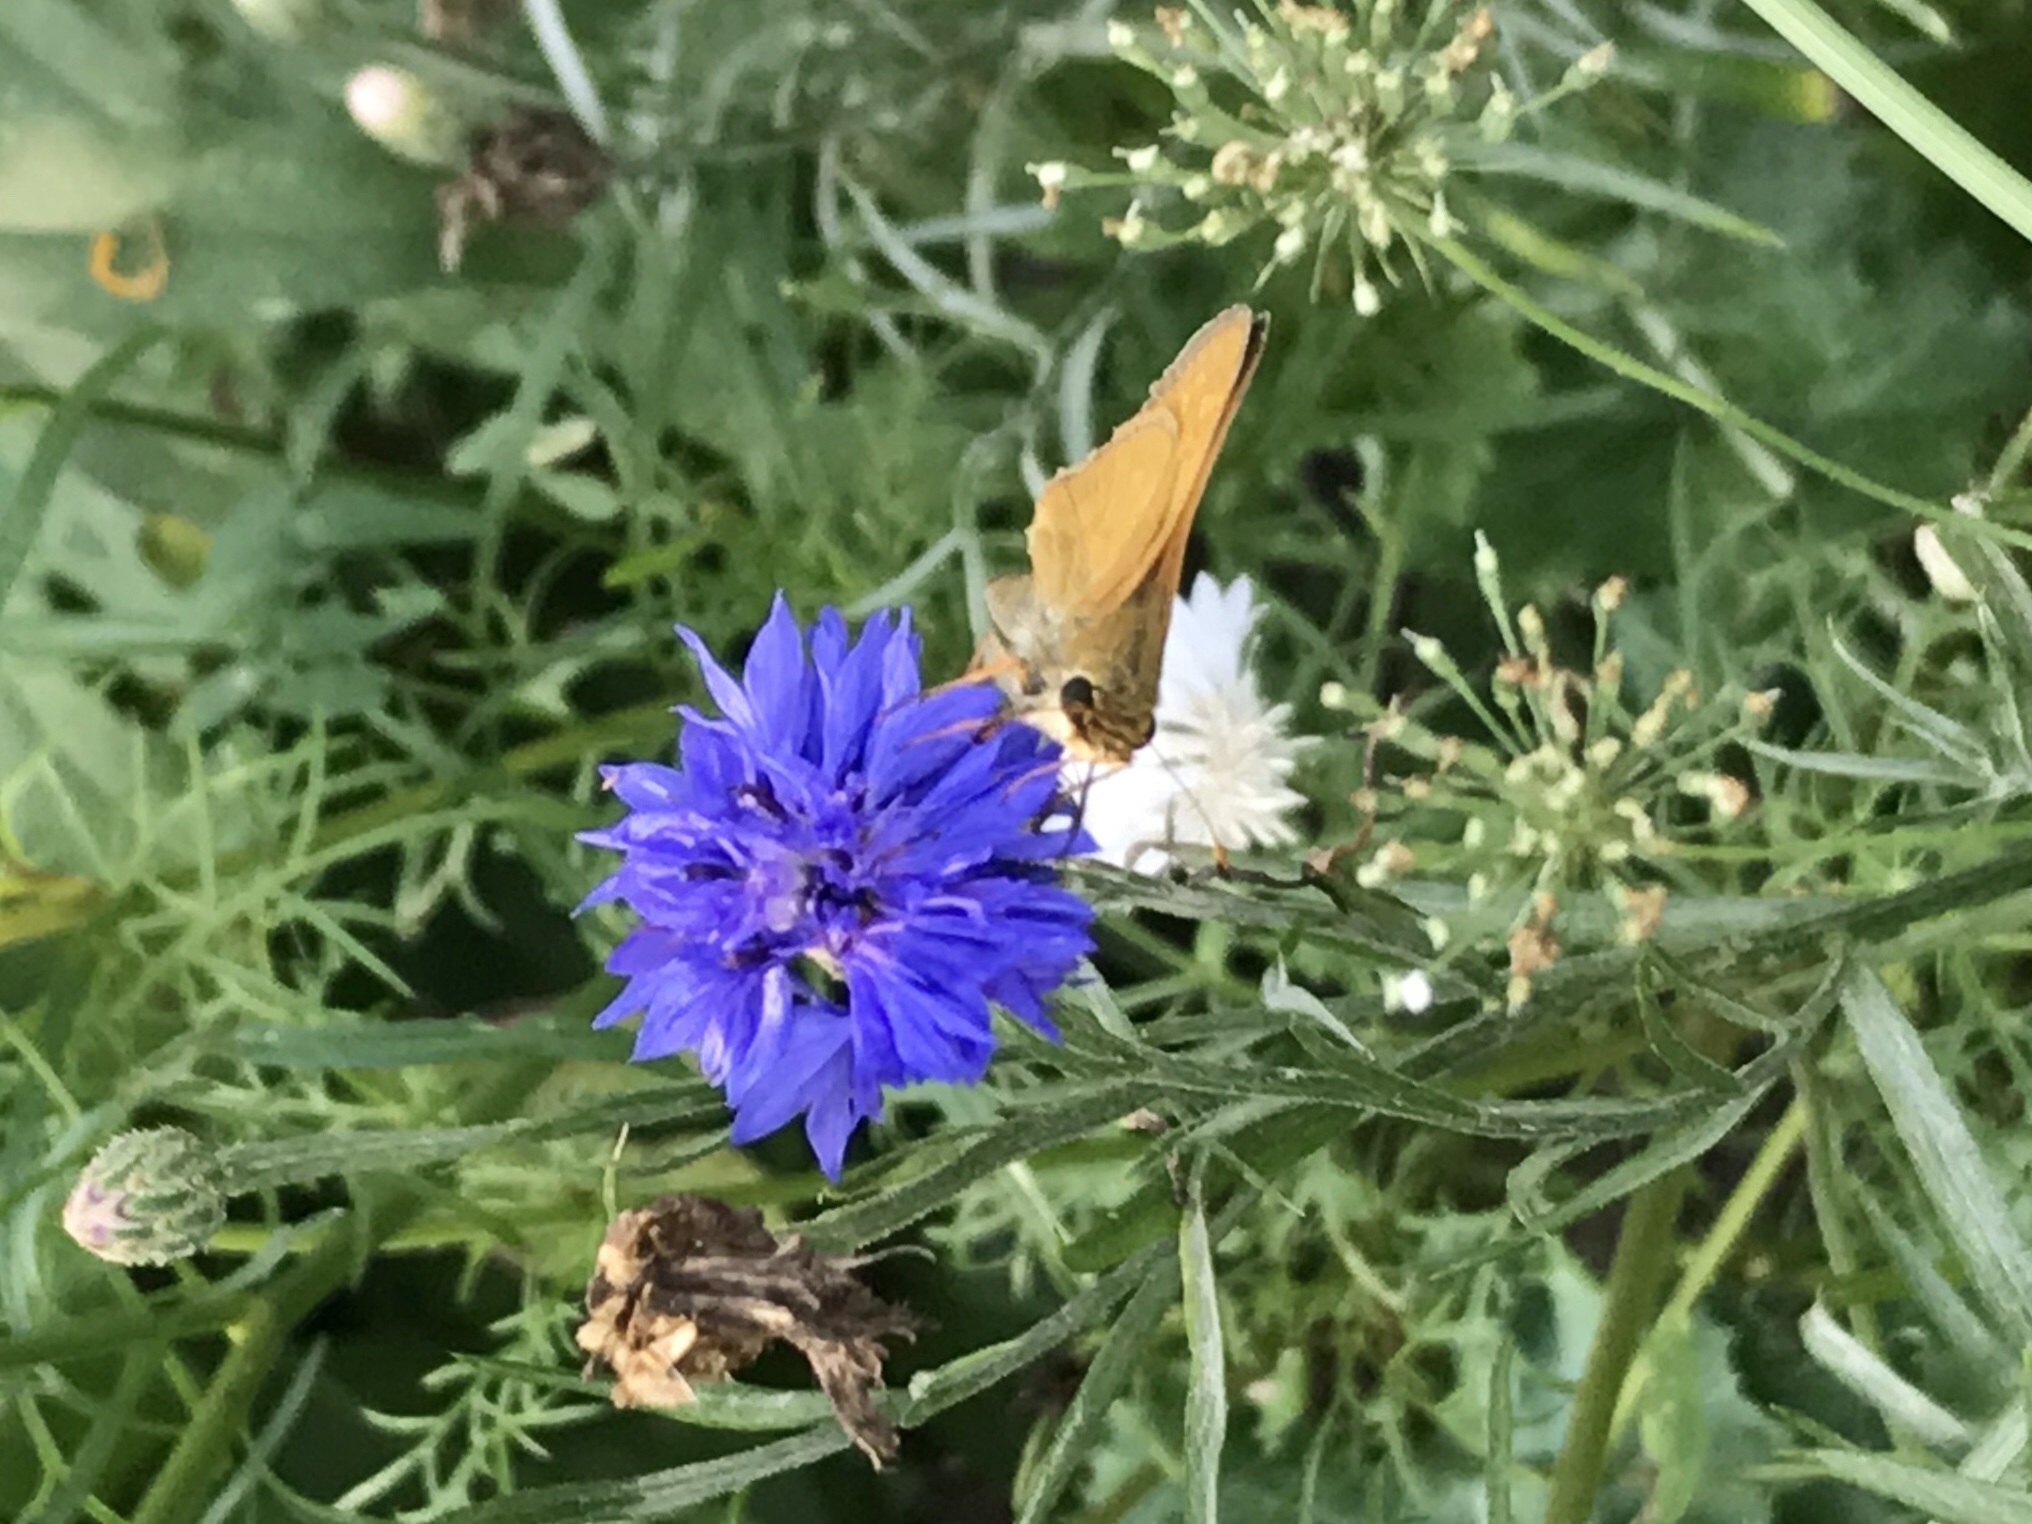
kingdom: Animalia
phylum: Arthropoda
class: Insecta
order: Lepidoptera
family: Hesperiidae
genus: Atalopedes
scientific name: Atalopedes
